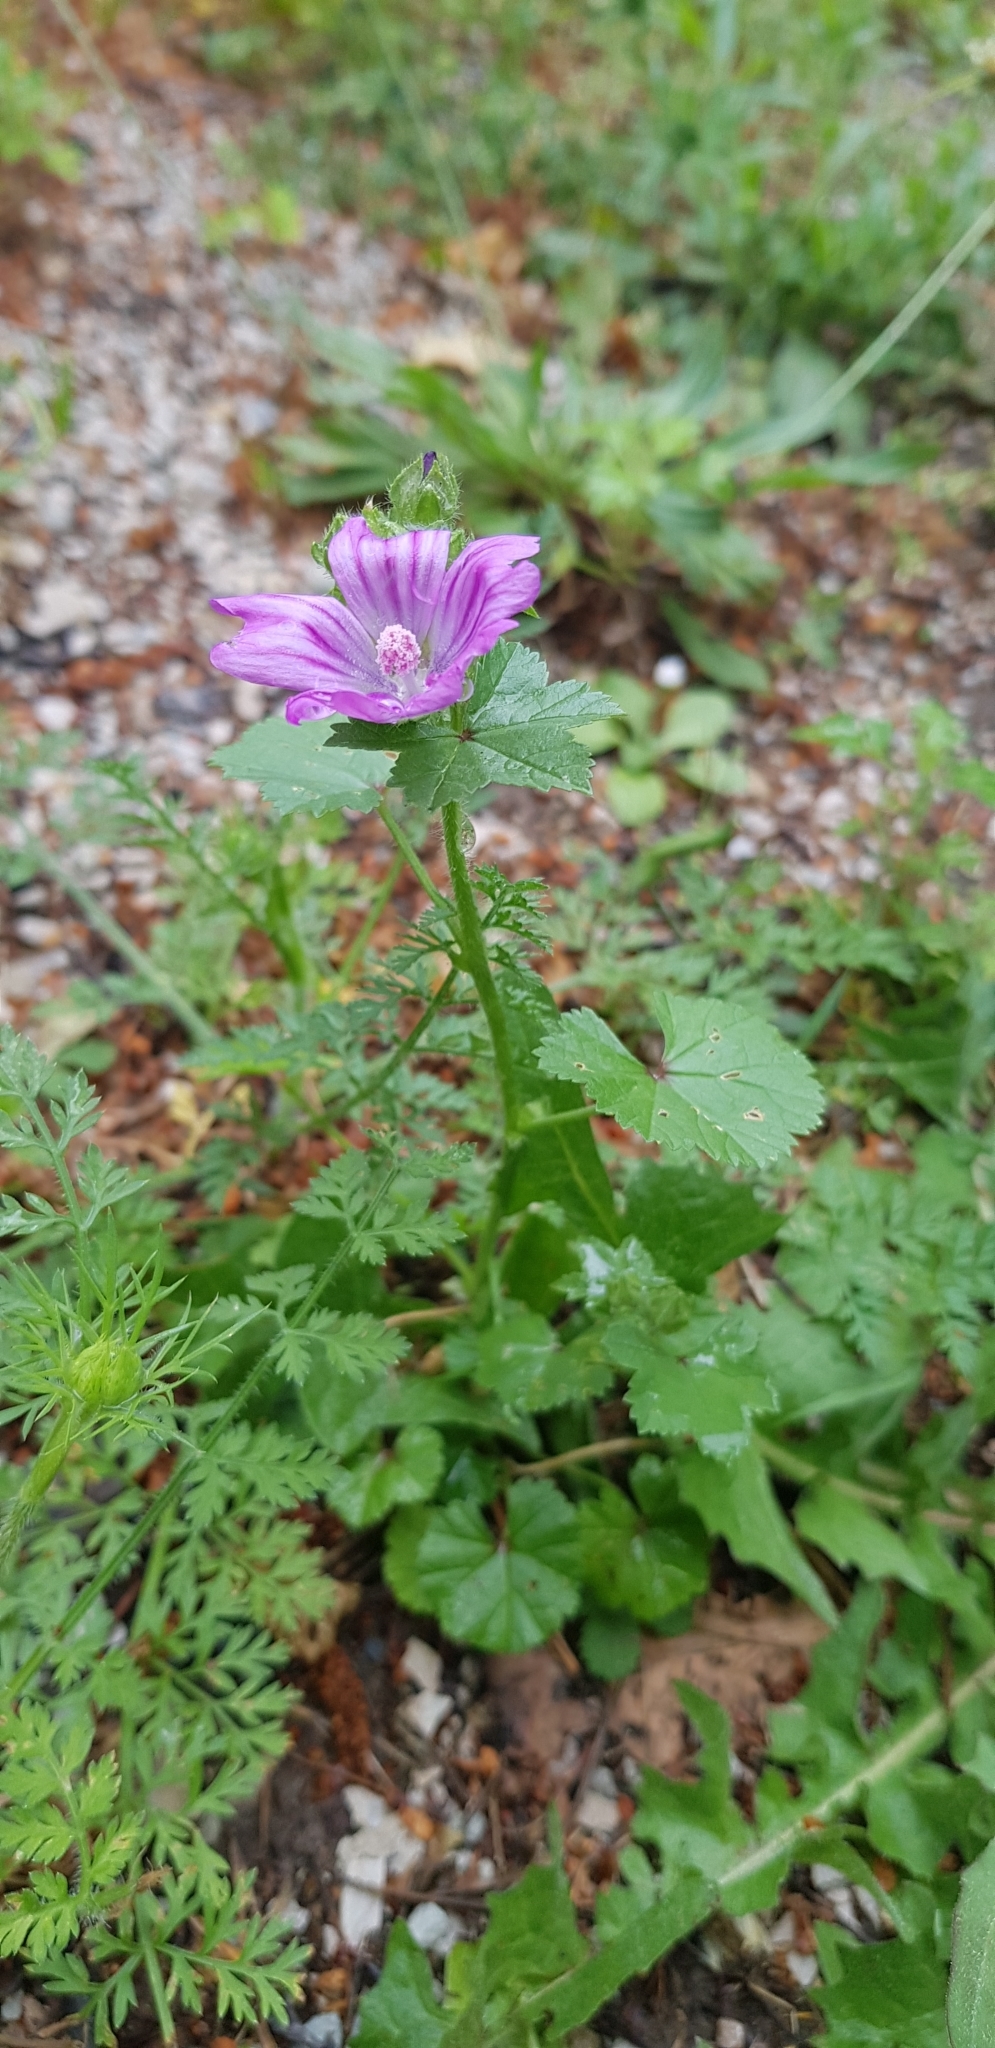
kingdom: Plantae
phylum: Tracheophyta
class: Magnoliopsida
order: Malvales
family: Malvaceae
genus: Malva
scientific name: Malva sylvestris
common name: Common mallow
